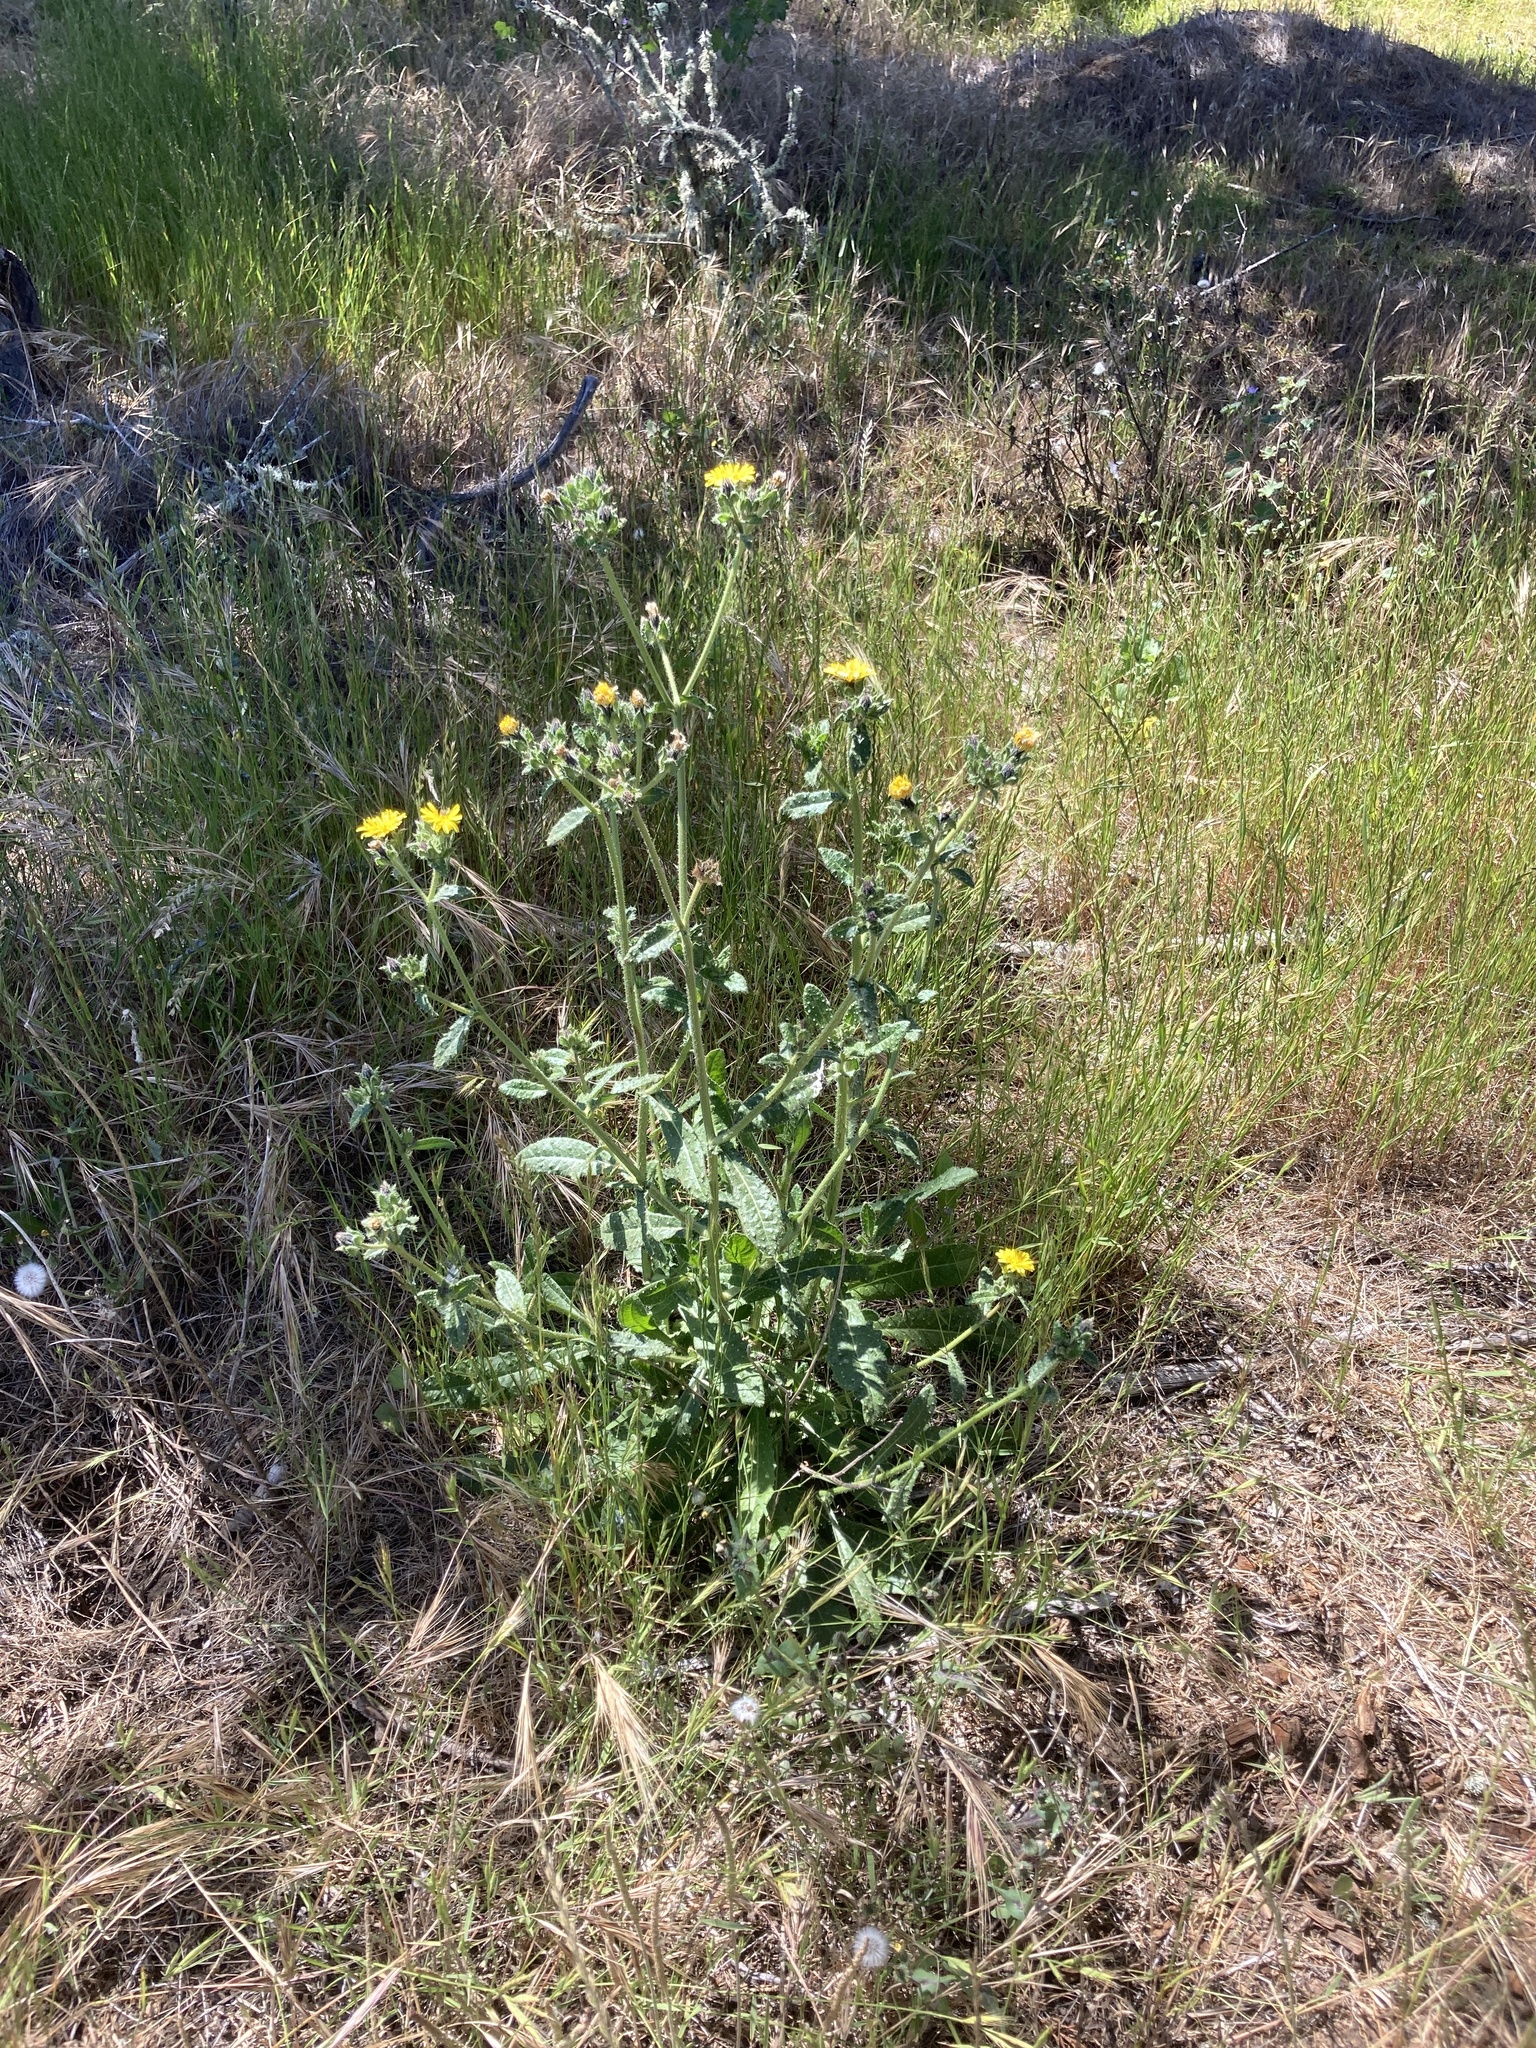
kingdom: Plantae
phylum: Tracheophyta
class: Magnoliopsida
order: Asterales
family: Asteraceae
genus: Helminthotheca
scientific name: Helminthotheca echioides
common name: Ox-tongue
